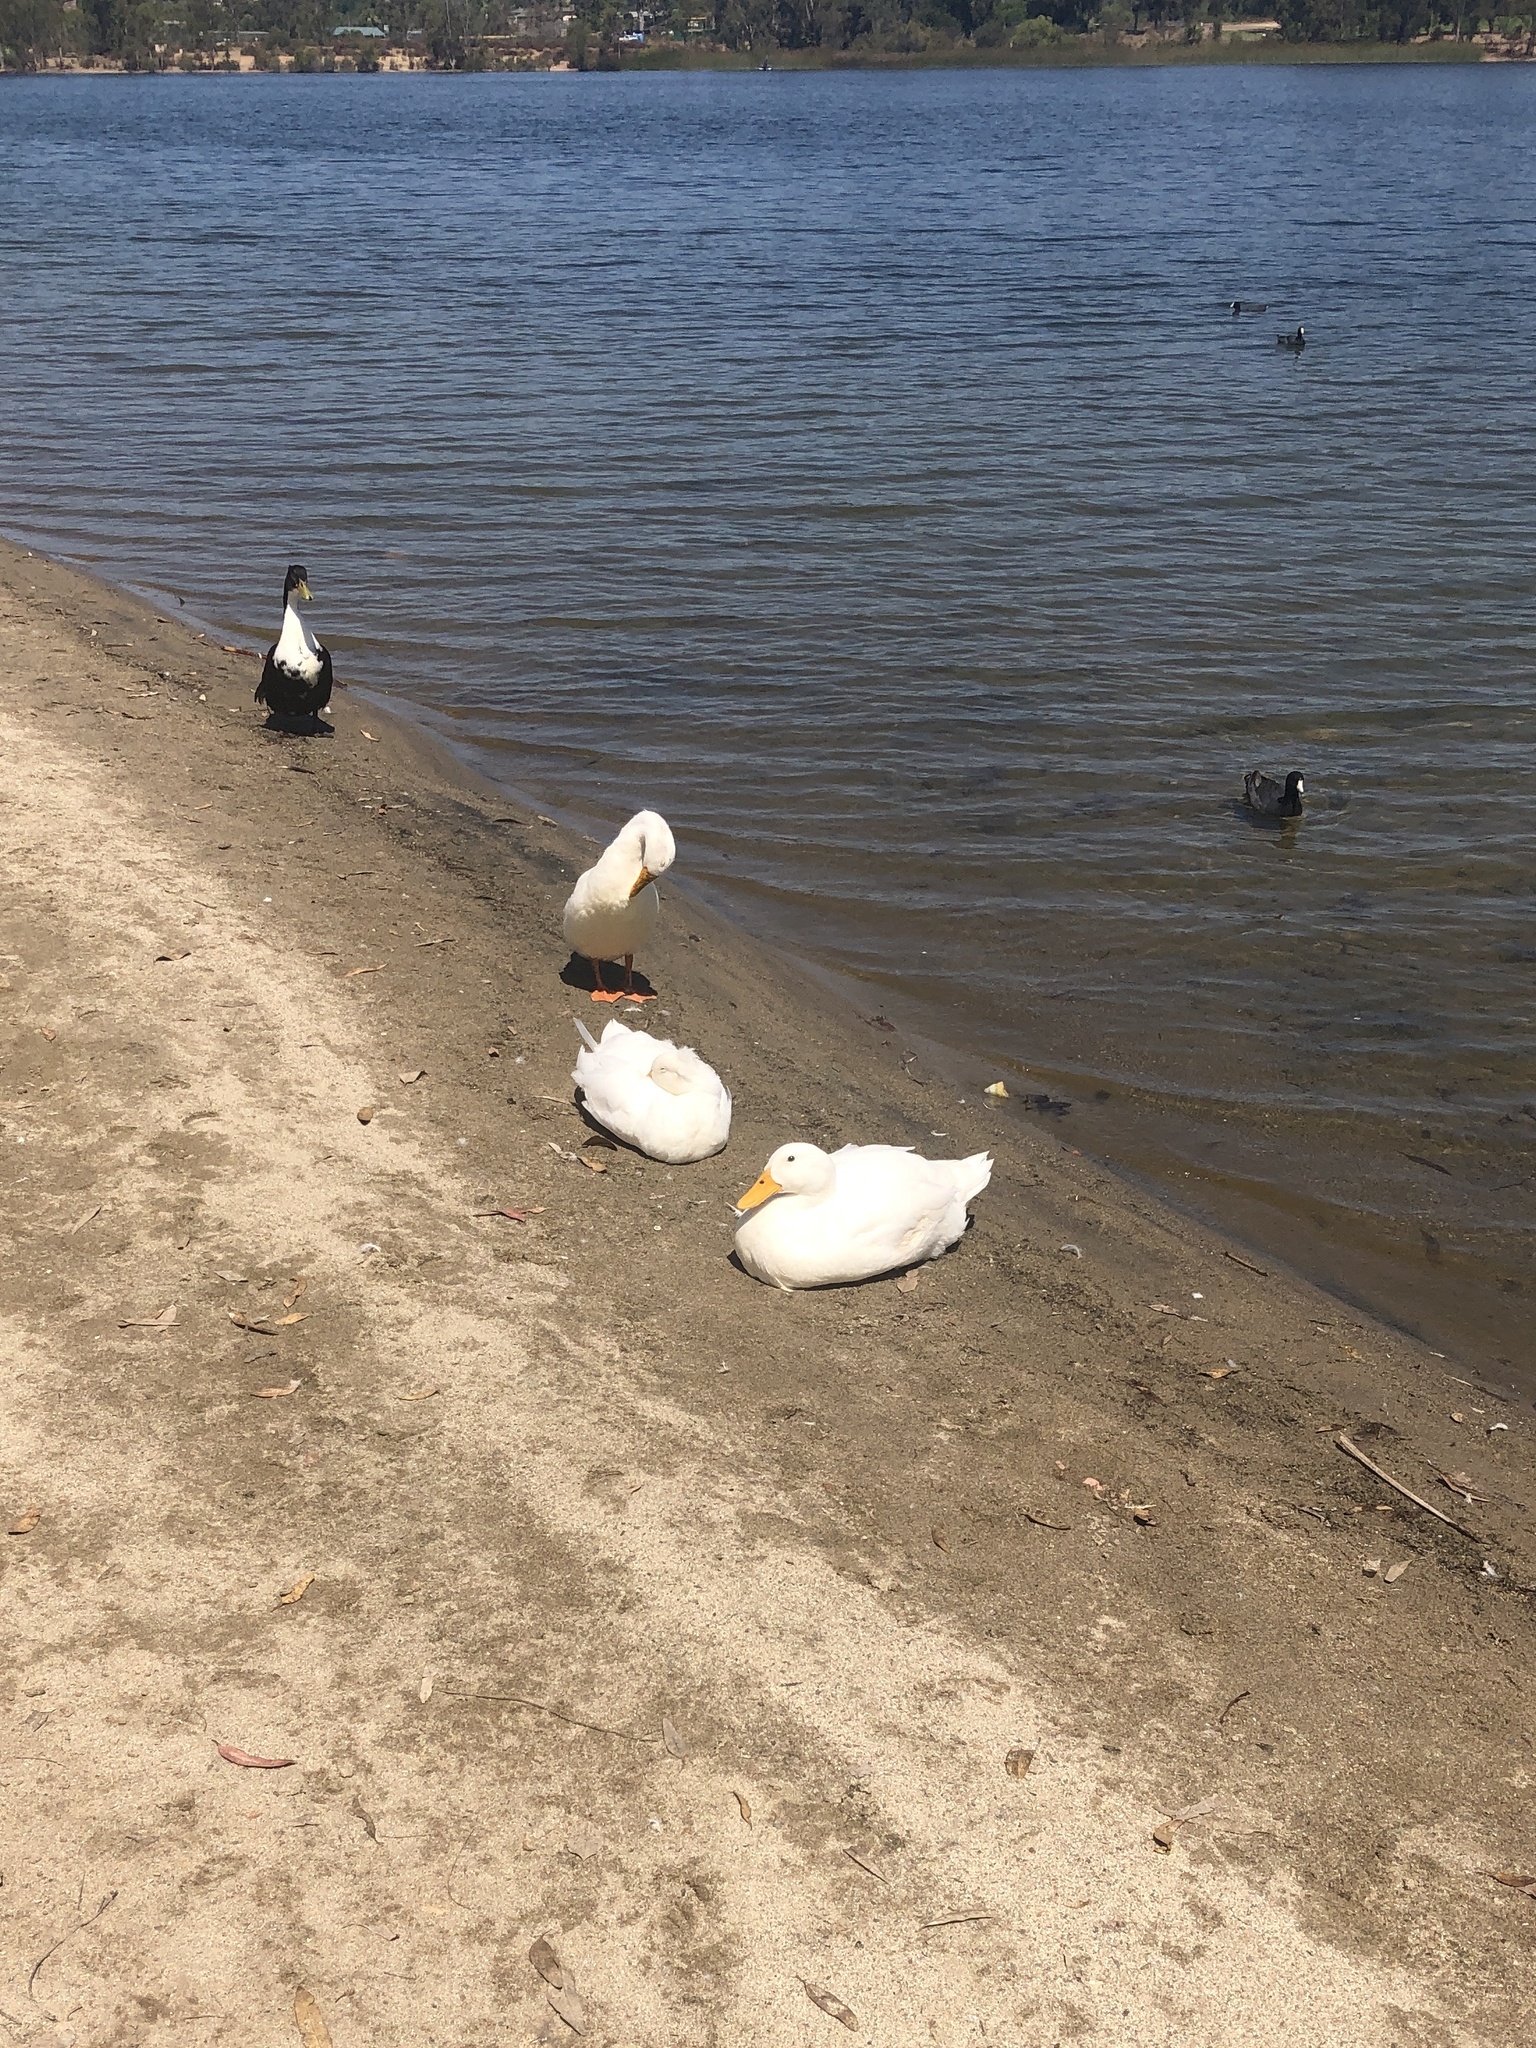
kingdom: Animalia
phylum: Chordata
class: Aves
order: Anseriformes
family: Anatidae
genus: Anas
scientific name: Anas platyrhynchos
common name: Mallard
